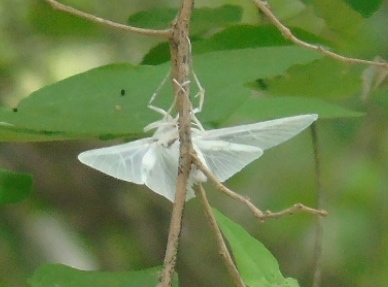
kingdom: Animalia
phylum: Arthropoda
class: Insecta
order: Lepidoptera
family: Crambidae
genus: Palpita
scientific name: Palpita flegia
